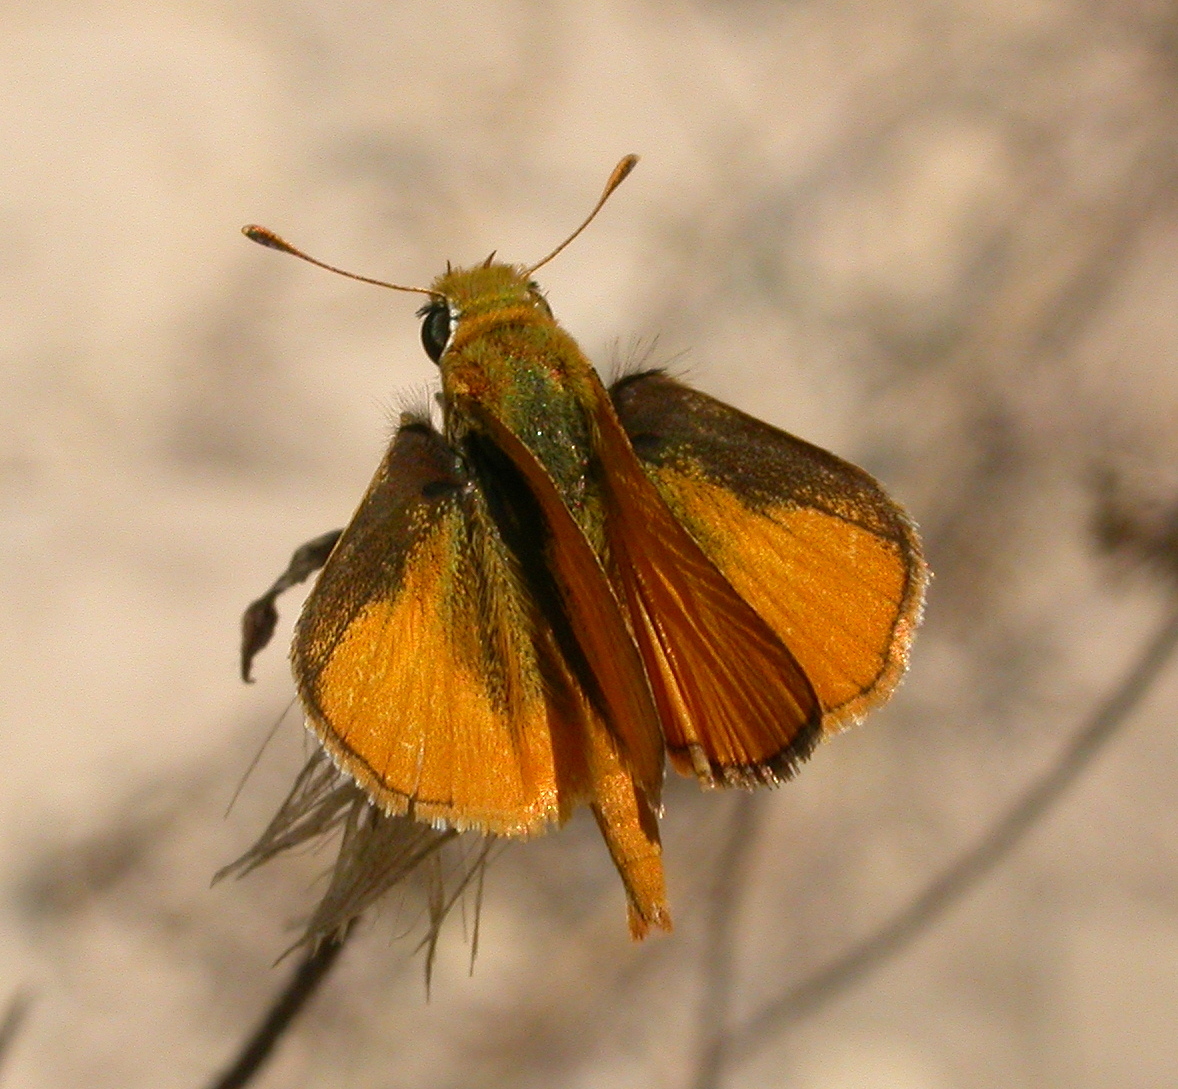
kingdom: Animalia
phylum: Arthropoda
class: Insecta
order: Lepidoptera
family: Hesperiidae
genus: Copaeodes
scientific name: Copaeodes minima
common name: Southern skipperling
